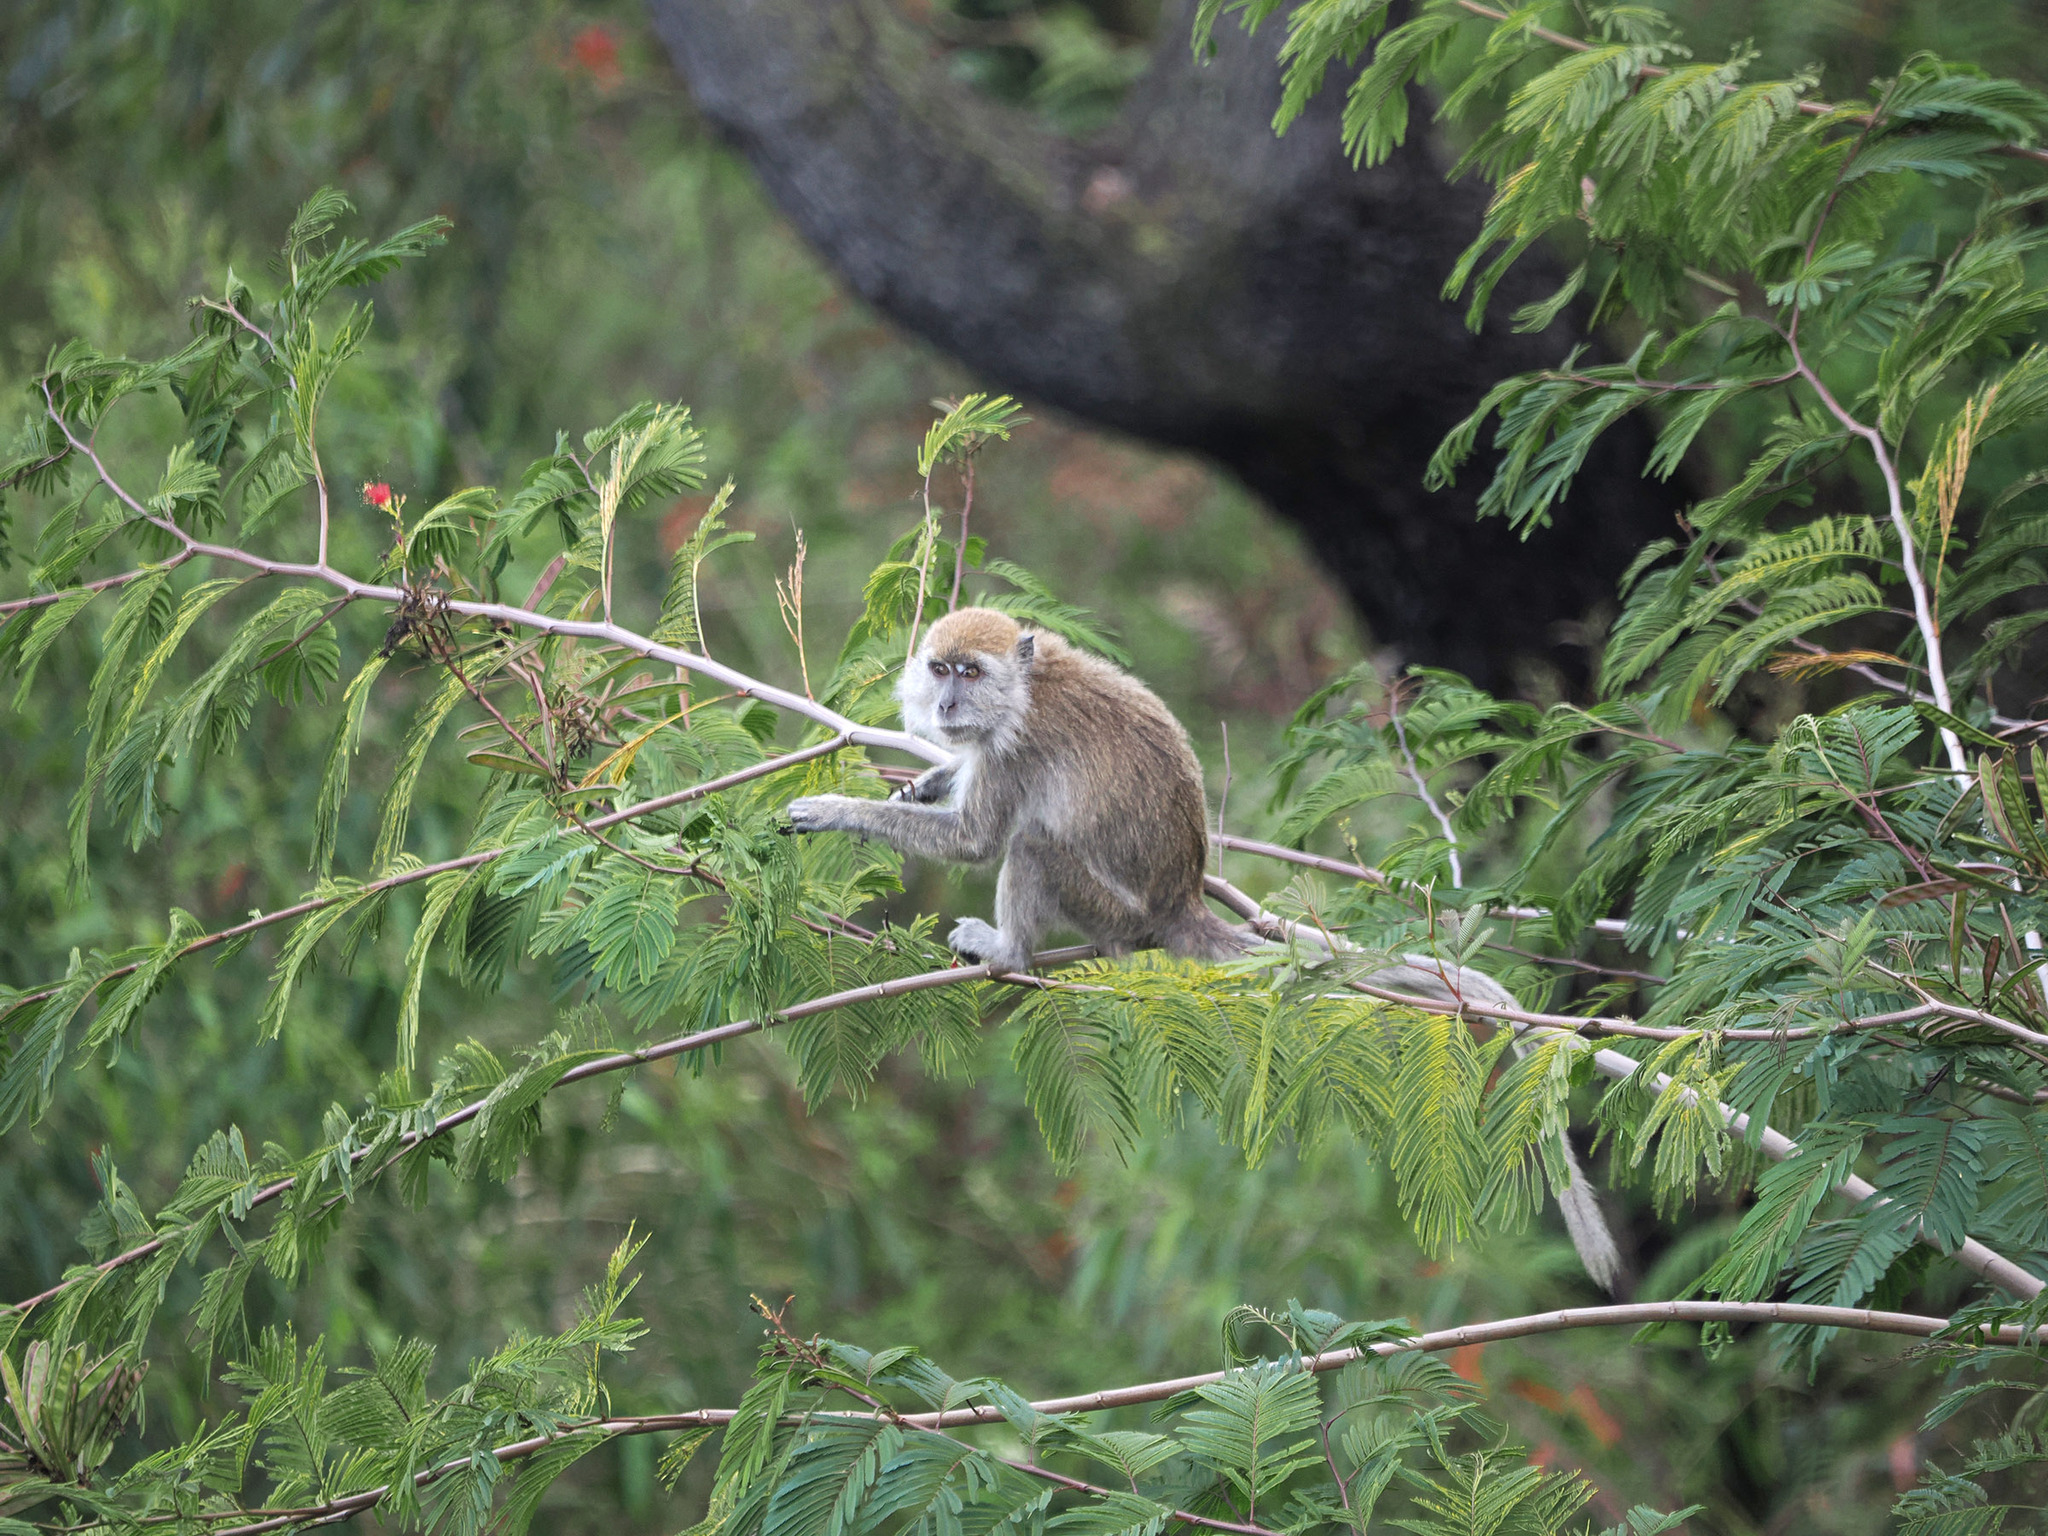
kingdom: Animalia
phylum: Chordata
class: Mammalia
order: Primates
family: Cercopithecidae
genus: Macaca
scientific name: Macaca fascicularis
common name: Crab-eating macaque
